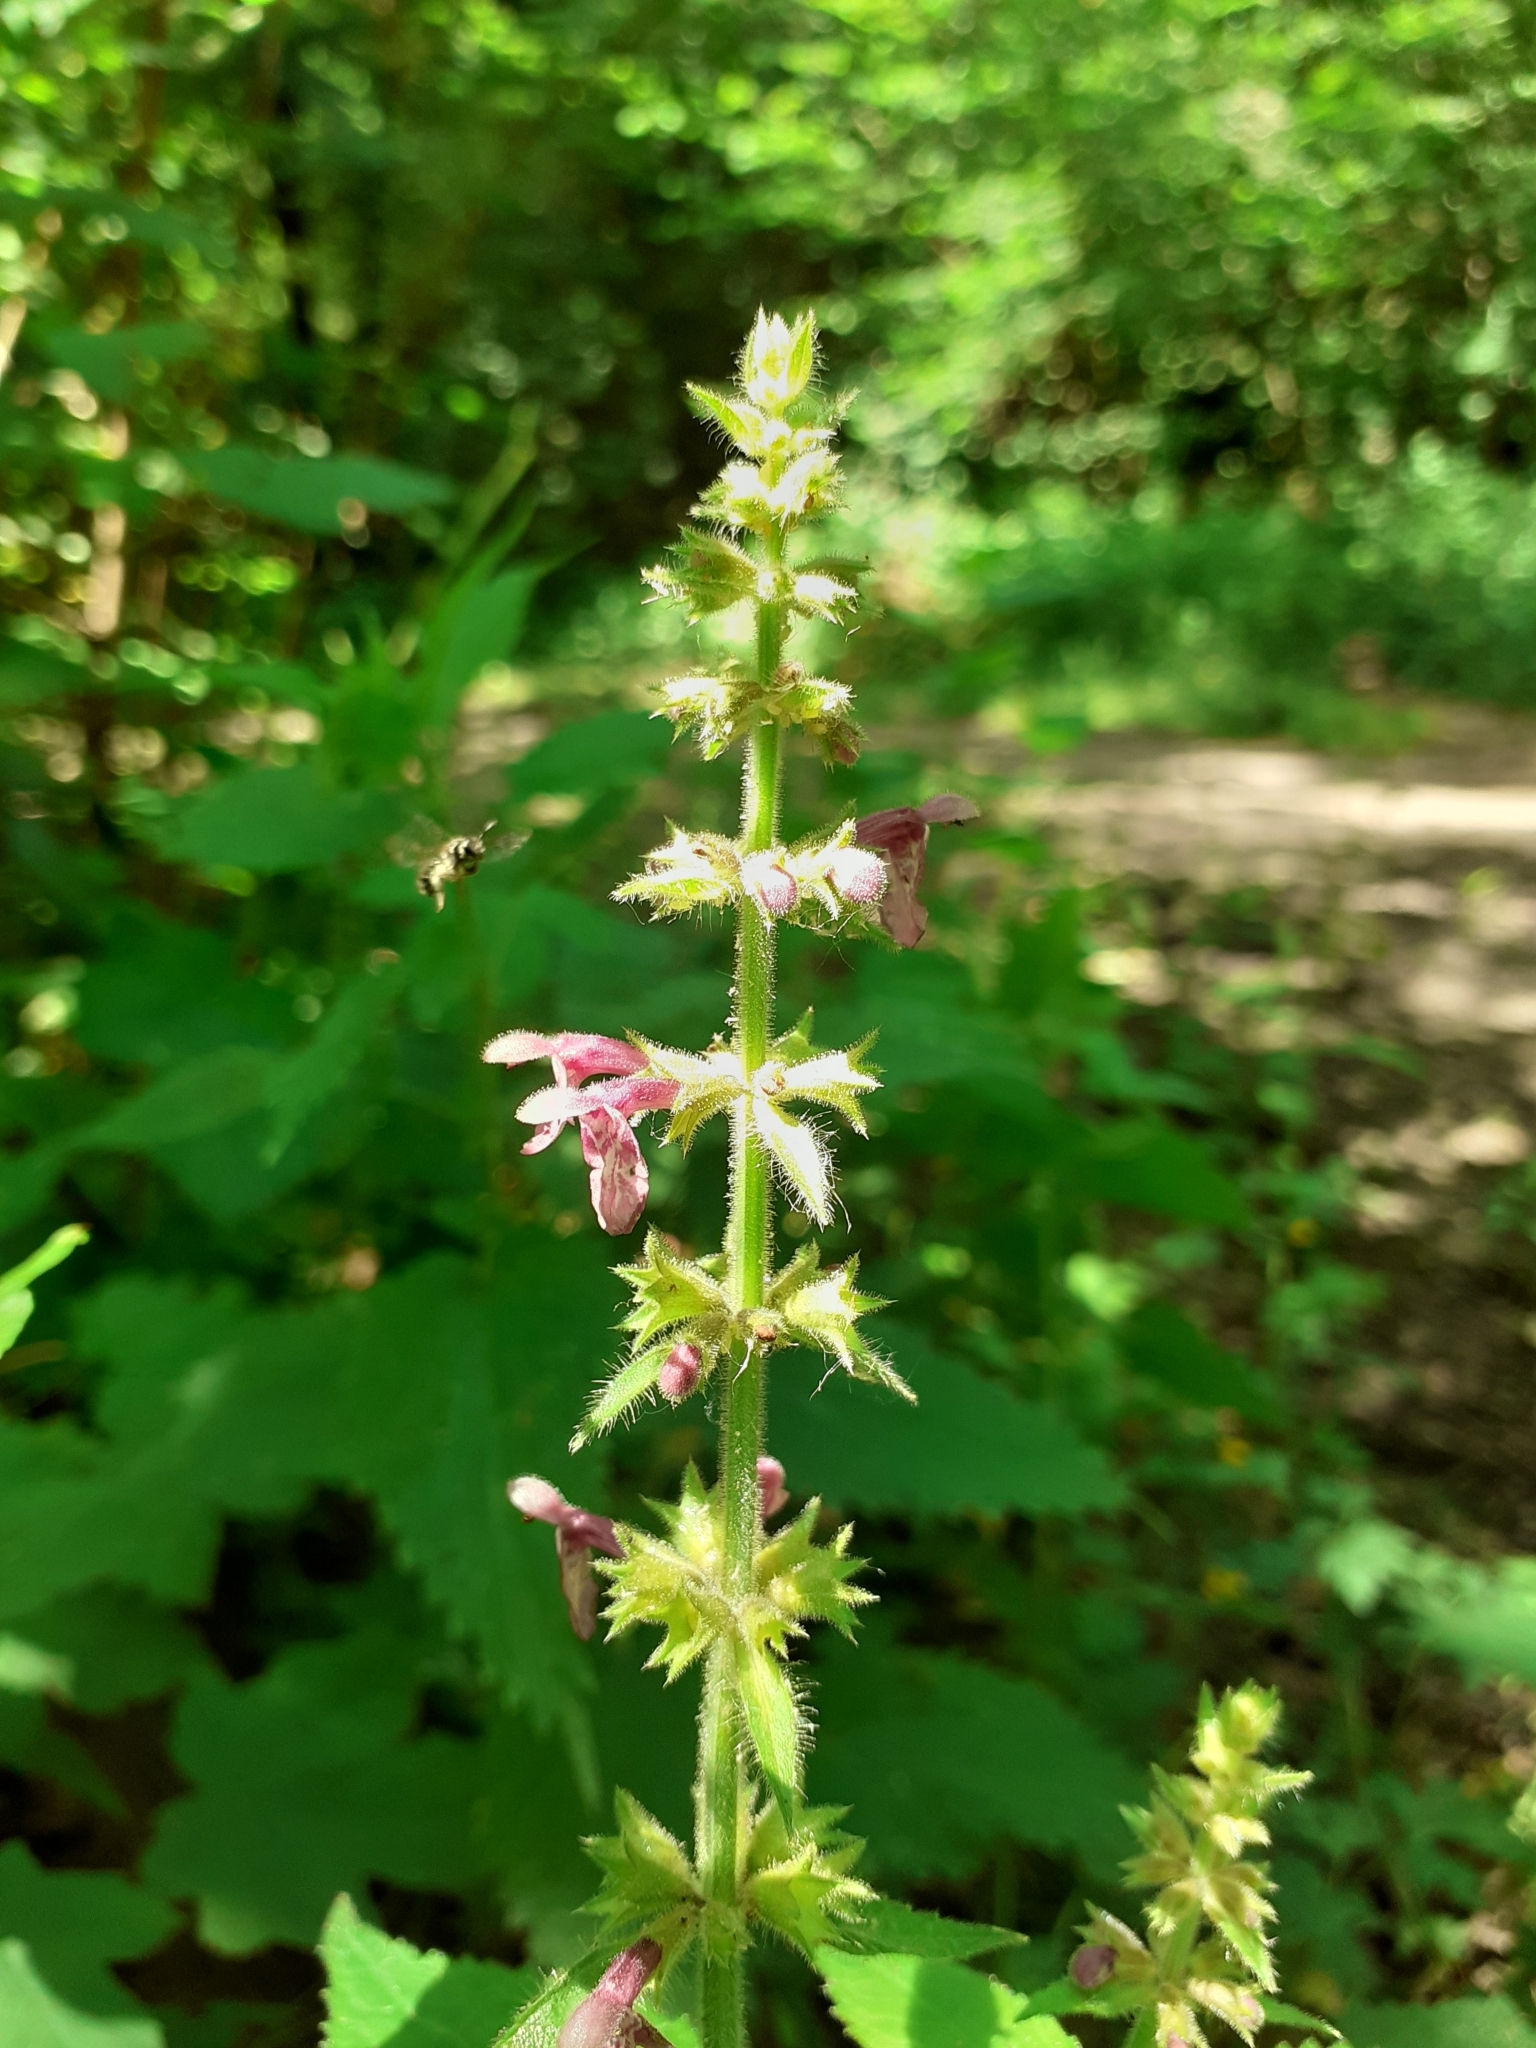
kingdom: Plantae
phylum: Tracheophyta
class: Magnoliopsida
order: Lamiales
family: Lamiaceae
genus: Stachys
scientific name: Stachys sylvatica
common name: Hedge woundwort
